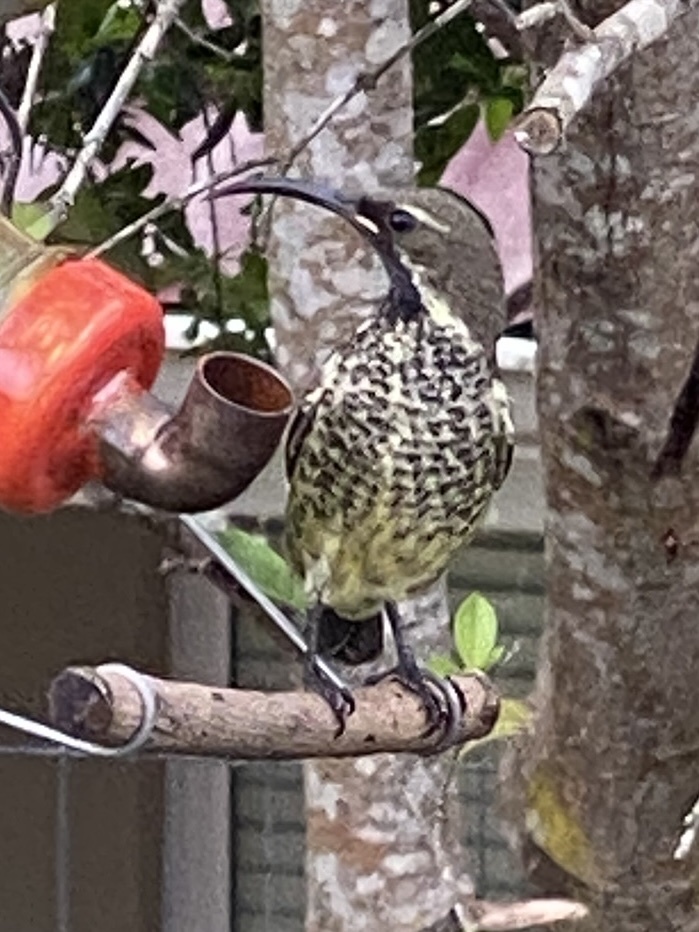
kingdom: Animalia
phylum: Chordata
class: Aves
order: Passeriformes
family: Nectariniidae
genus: Chalcomitra
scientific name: Chalcomitra amethystina
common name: Amethyst sunbird
